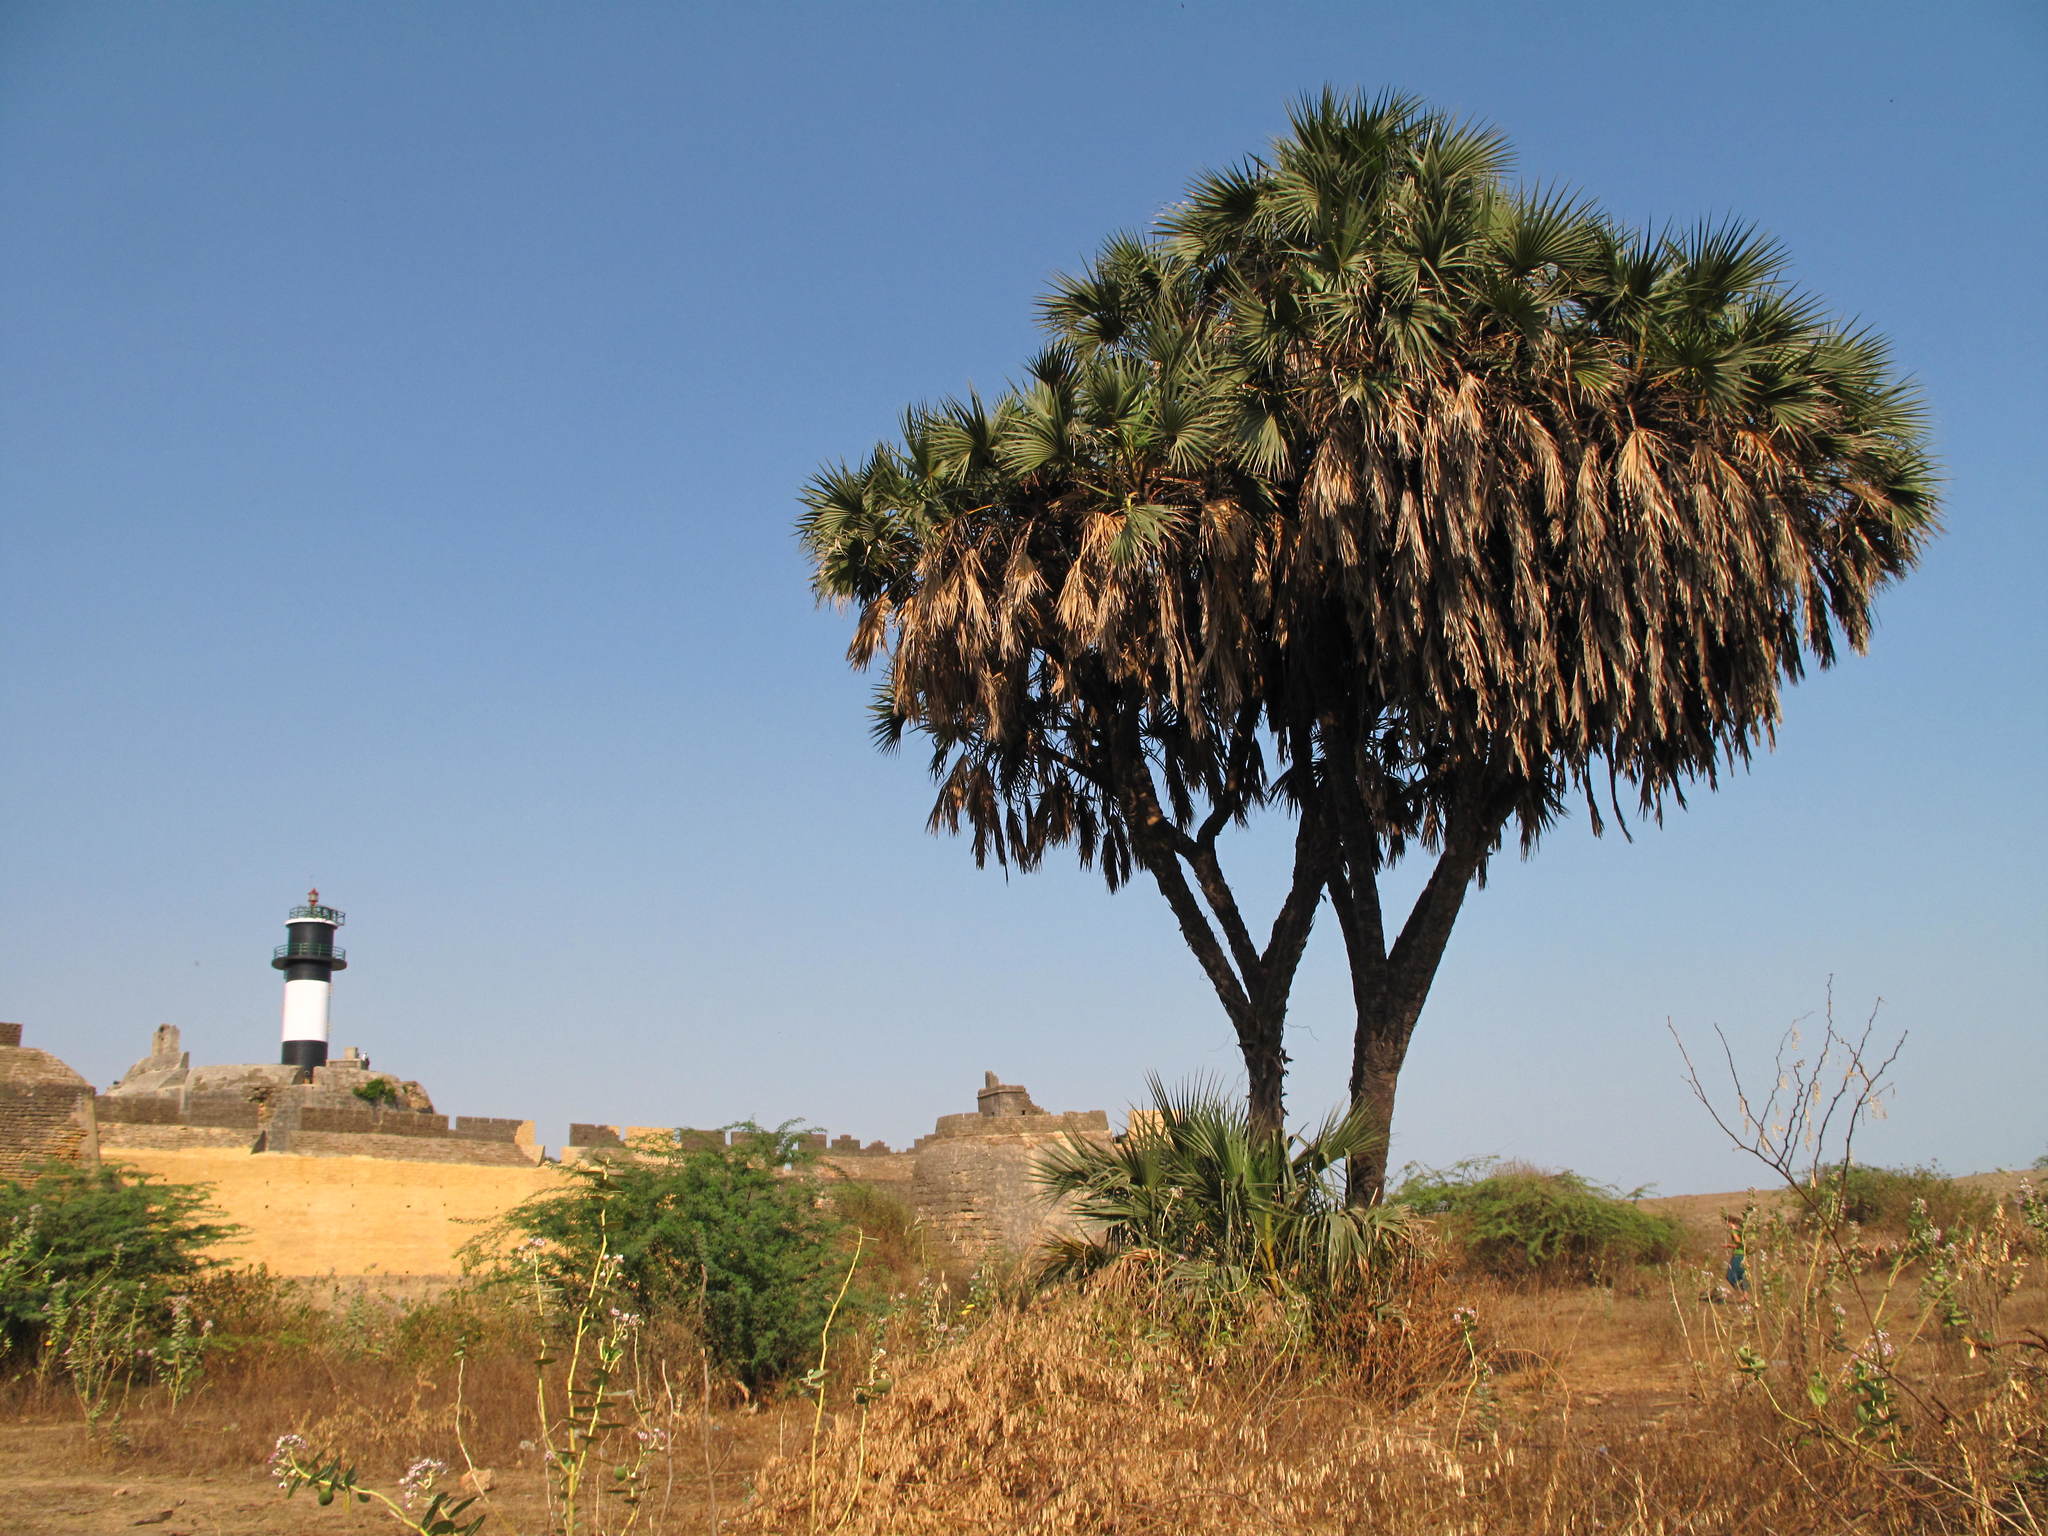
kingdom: Plantae
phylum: Tracheophyta
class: Liliopsida
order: Arecales
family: Arecaceae
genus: Hyphaene
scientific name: Hyphaene dichotoma
